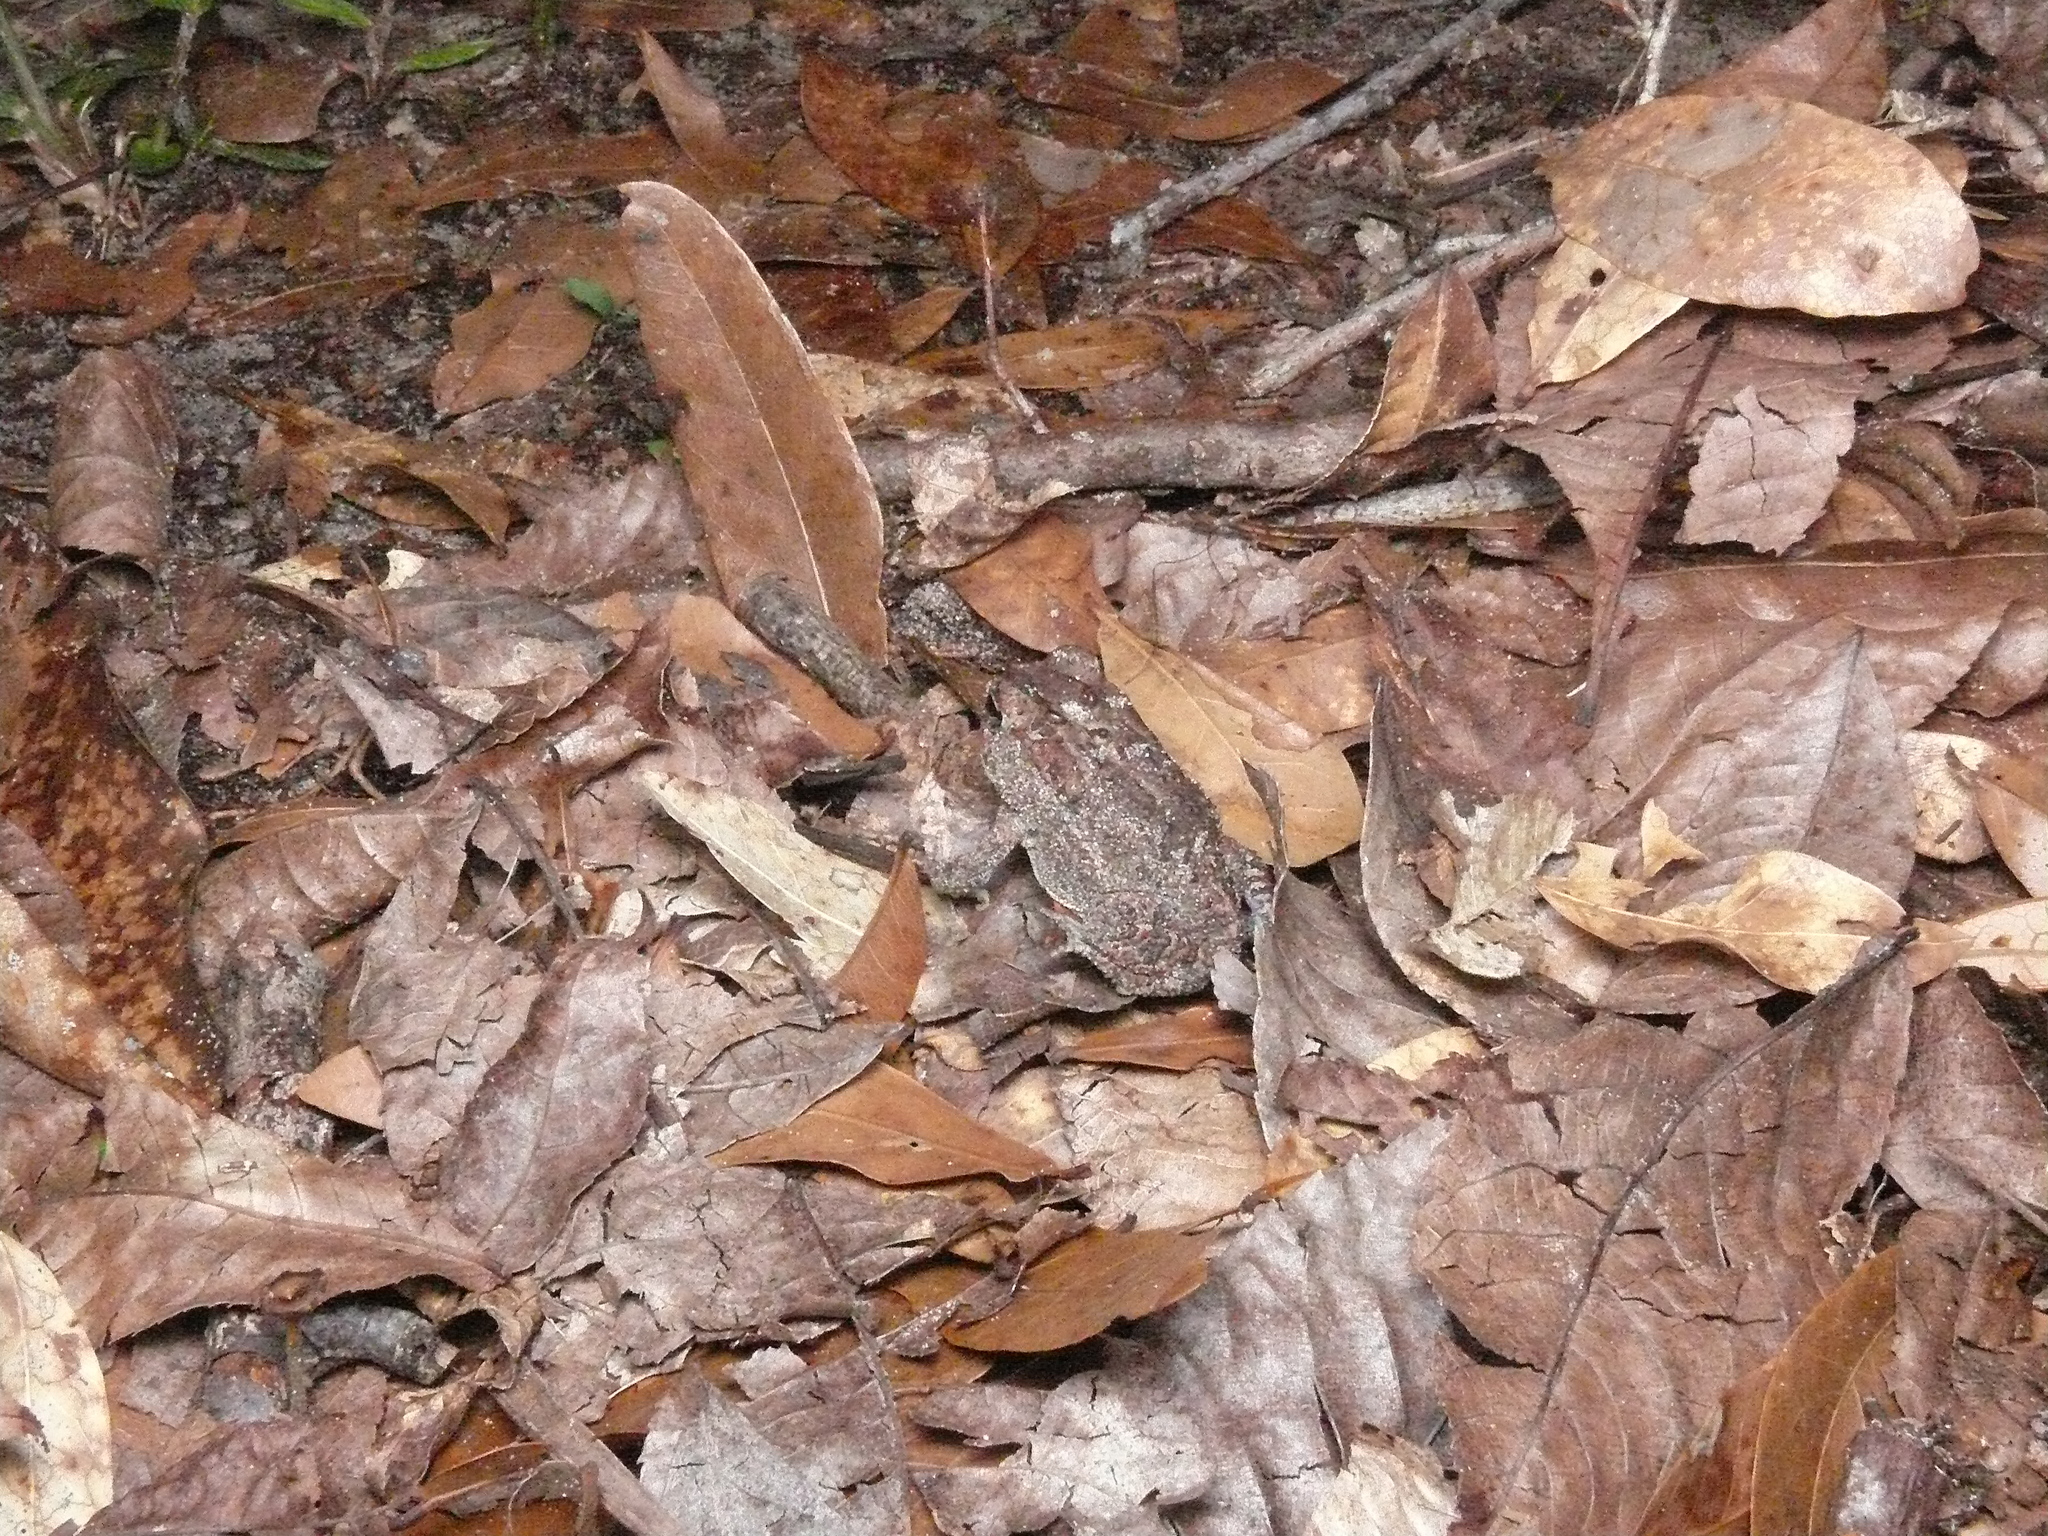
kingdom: Animalia
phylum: Chordata
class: Amphibia
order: Anura
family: Bufonidae
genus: Anaxyrus
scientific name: Anaxyrus terrestris
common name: Southern toad
